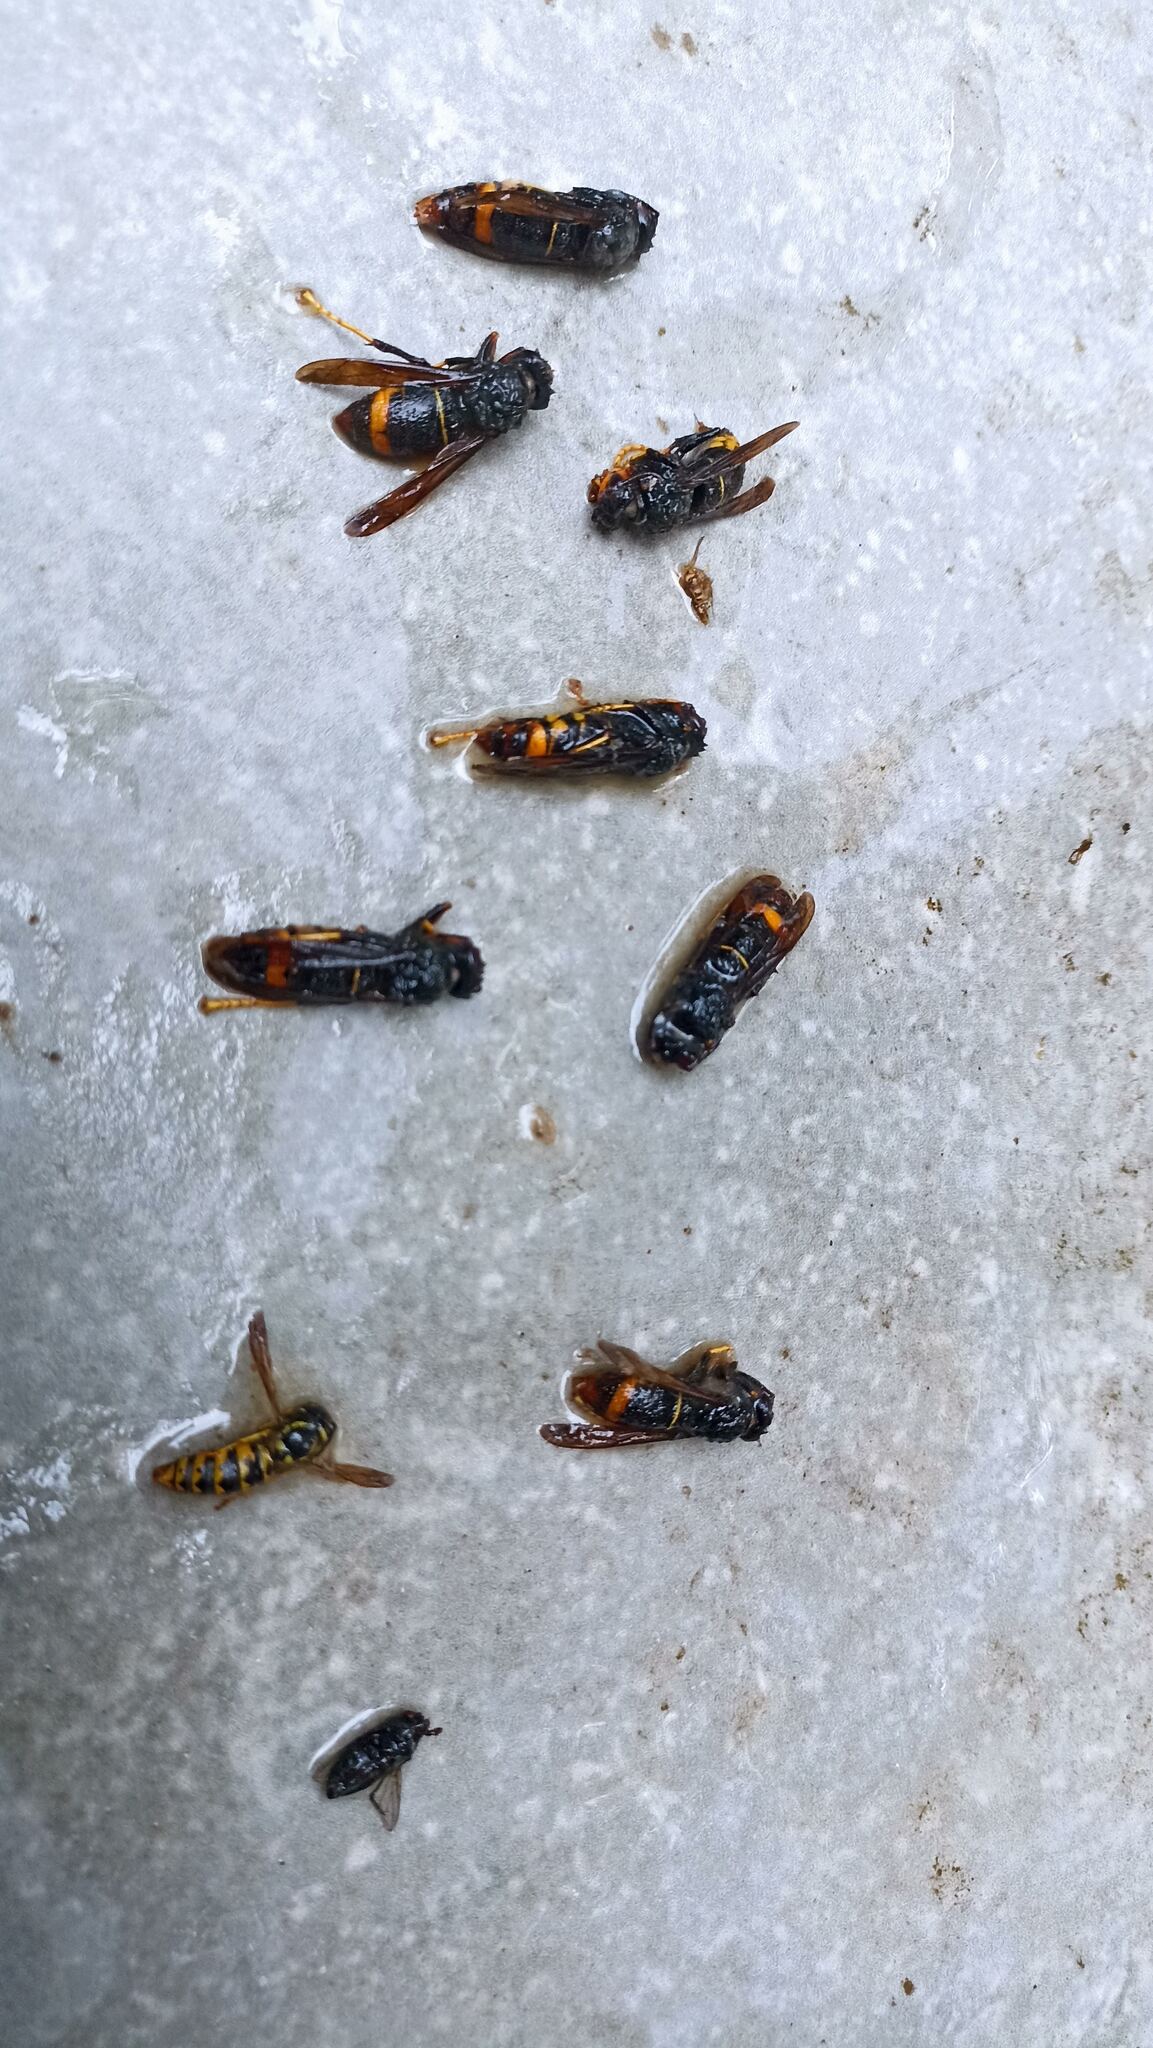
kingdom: Animalia
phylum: Arthropoda
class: Insecta
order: Hymenoptera
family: Vespidae
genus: Vespa
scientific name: Vespa velutina
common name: Asian hornet
